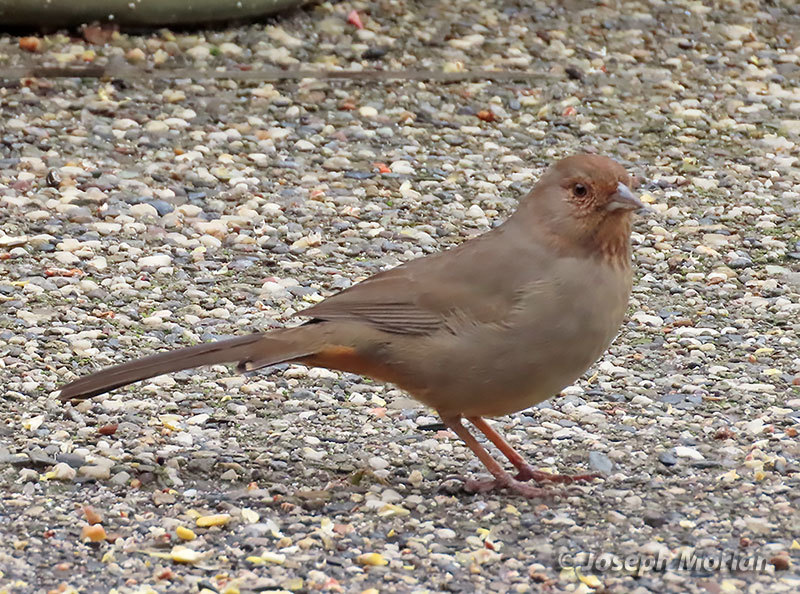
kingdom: Animalia
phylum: Chordata
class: Aves
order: Passeriformes
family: Passerellidae
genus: Melozone
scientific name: Melozone crissalis
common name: California towhee
